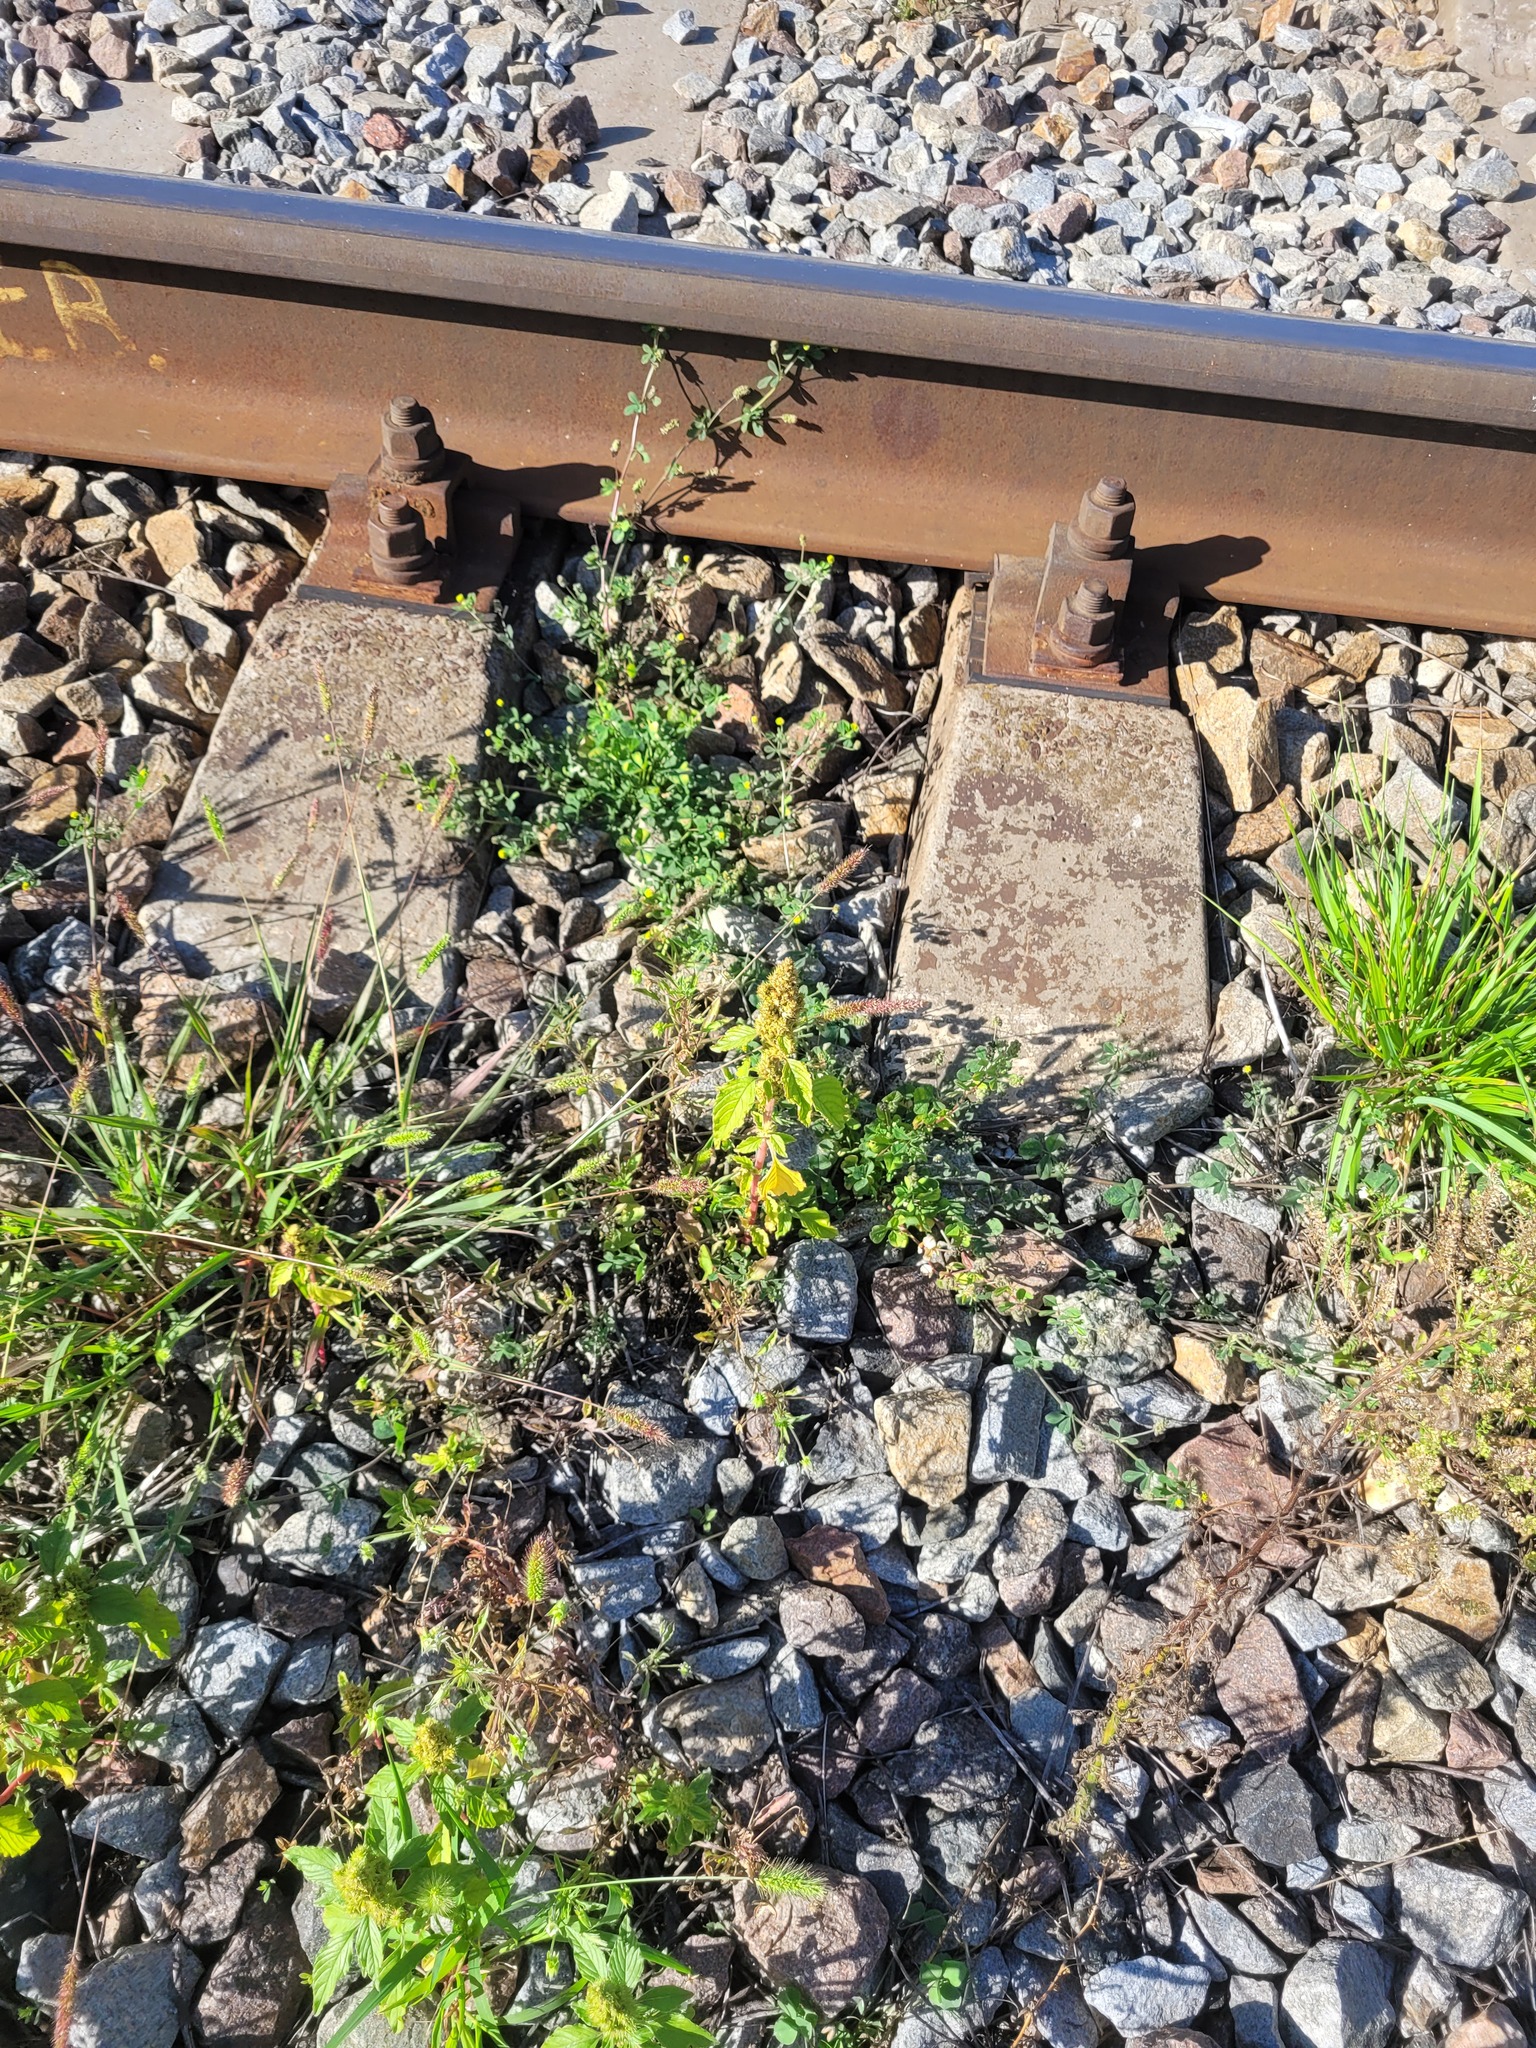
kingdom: Plantae
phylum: Tracheophyta
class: Magnoliopsida
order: Caryophyllales
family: Amaranthaceae
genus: Amaranthus
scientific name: Amaranthus retroflexus
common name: Redroot amaranth
